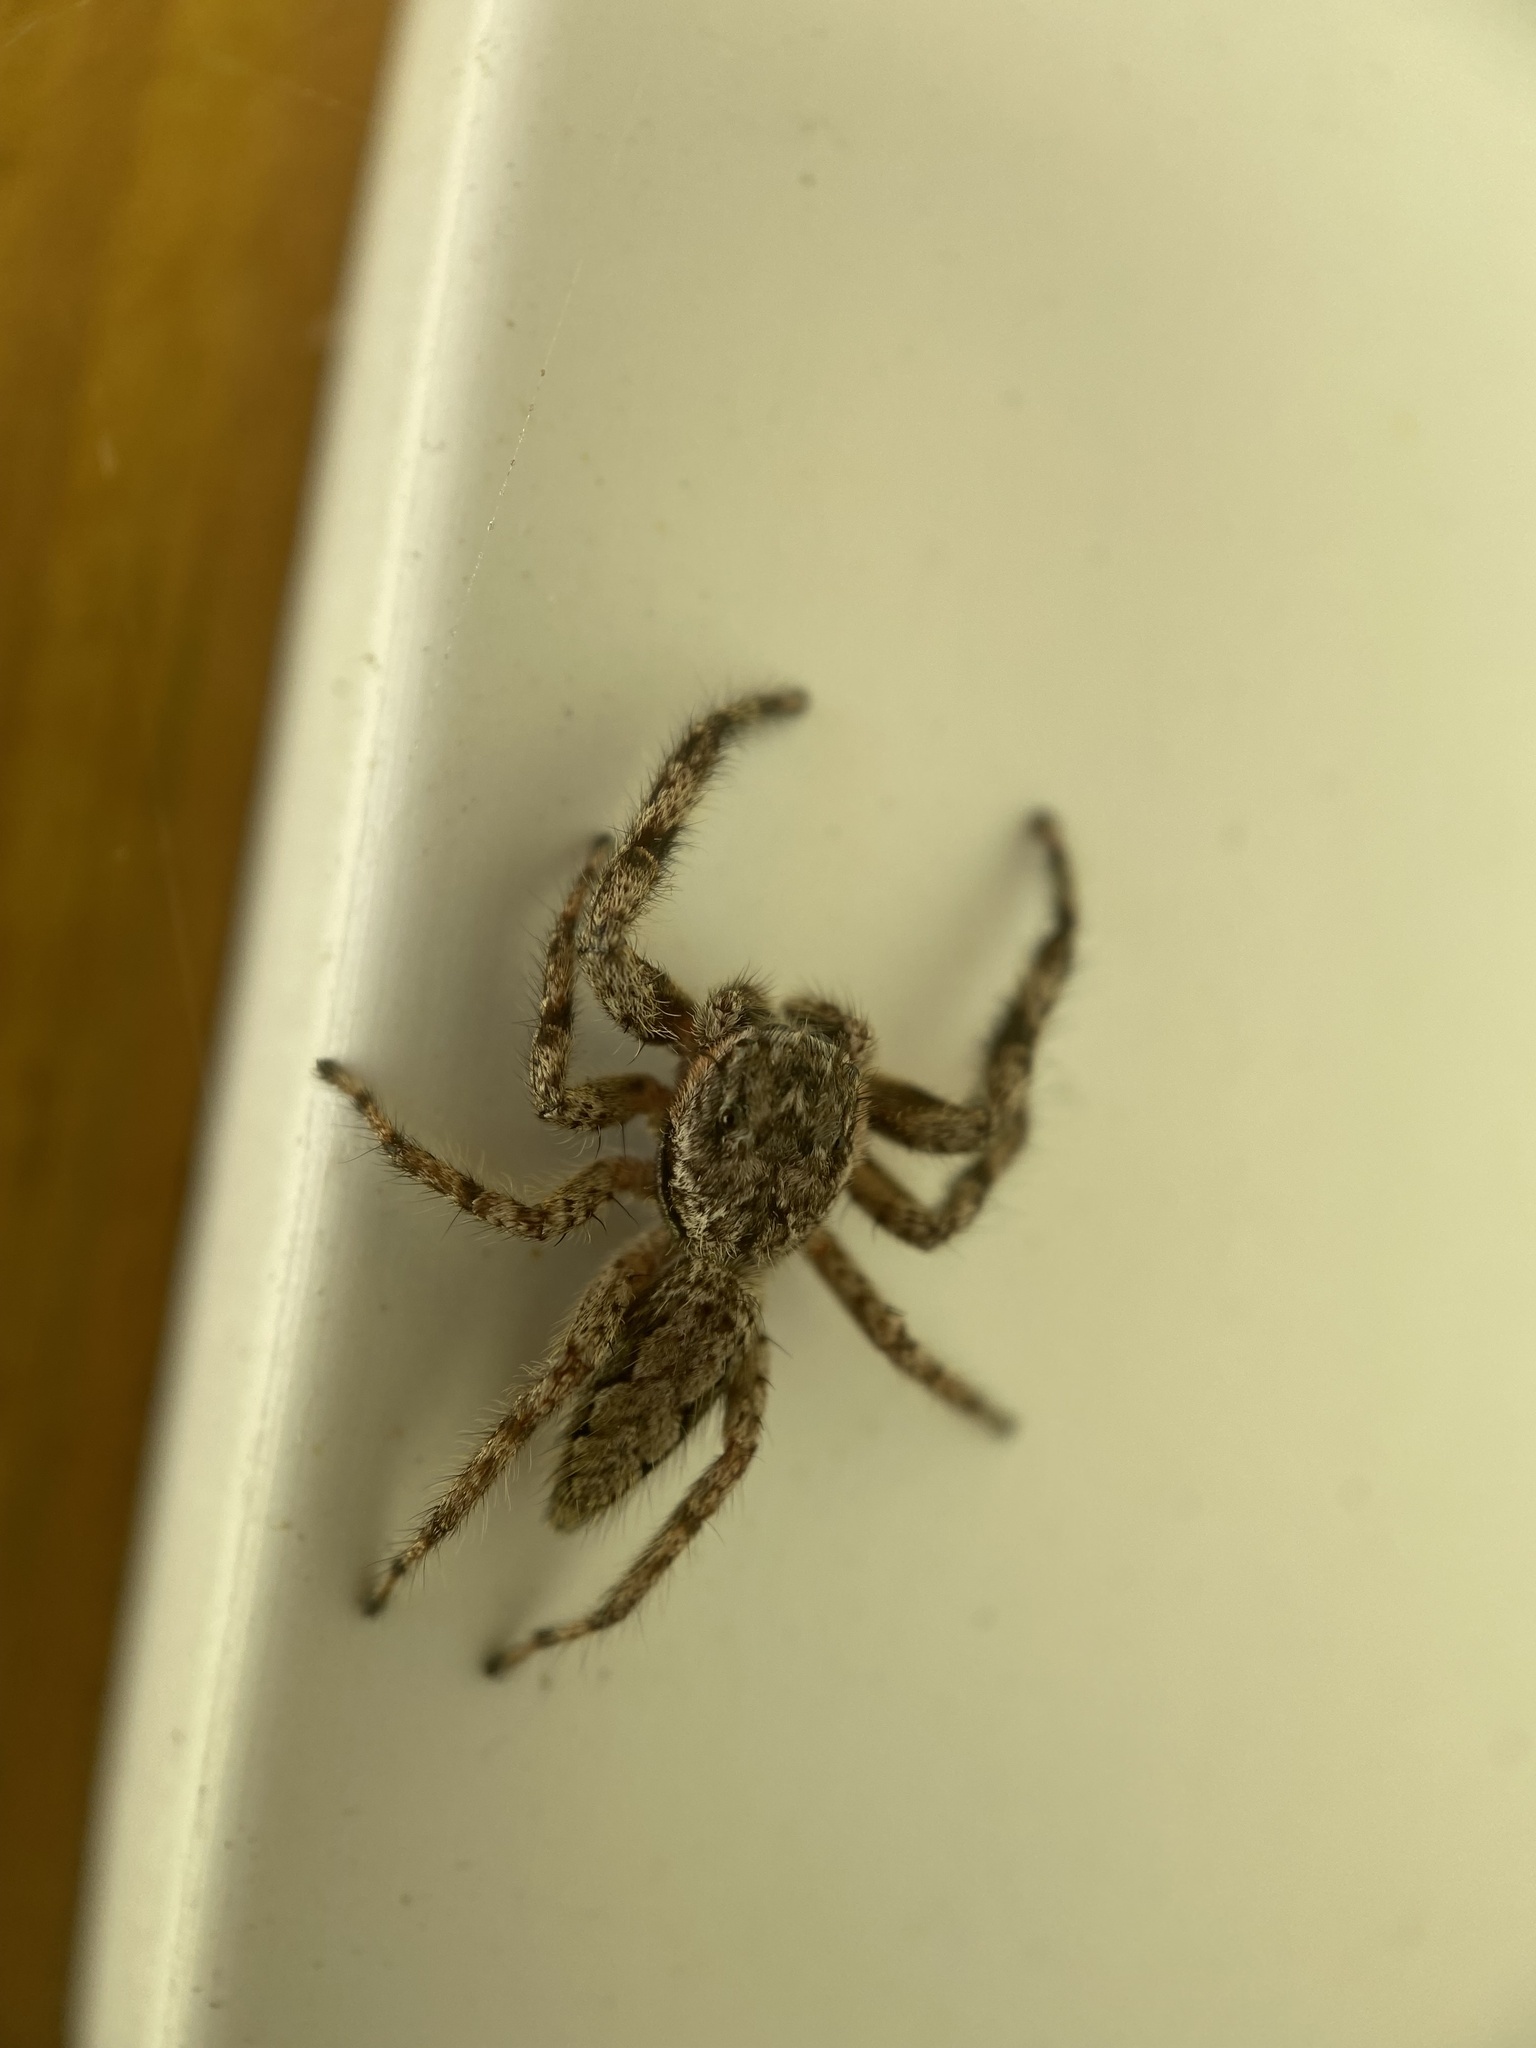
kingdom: Animalia
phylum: Arthropoda
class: Arachnida
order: Araneae
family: Salticidae
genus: Platycryptus
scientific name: Platycryptus undatus
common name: Tan jumping spider
